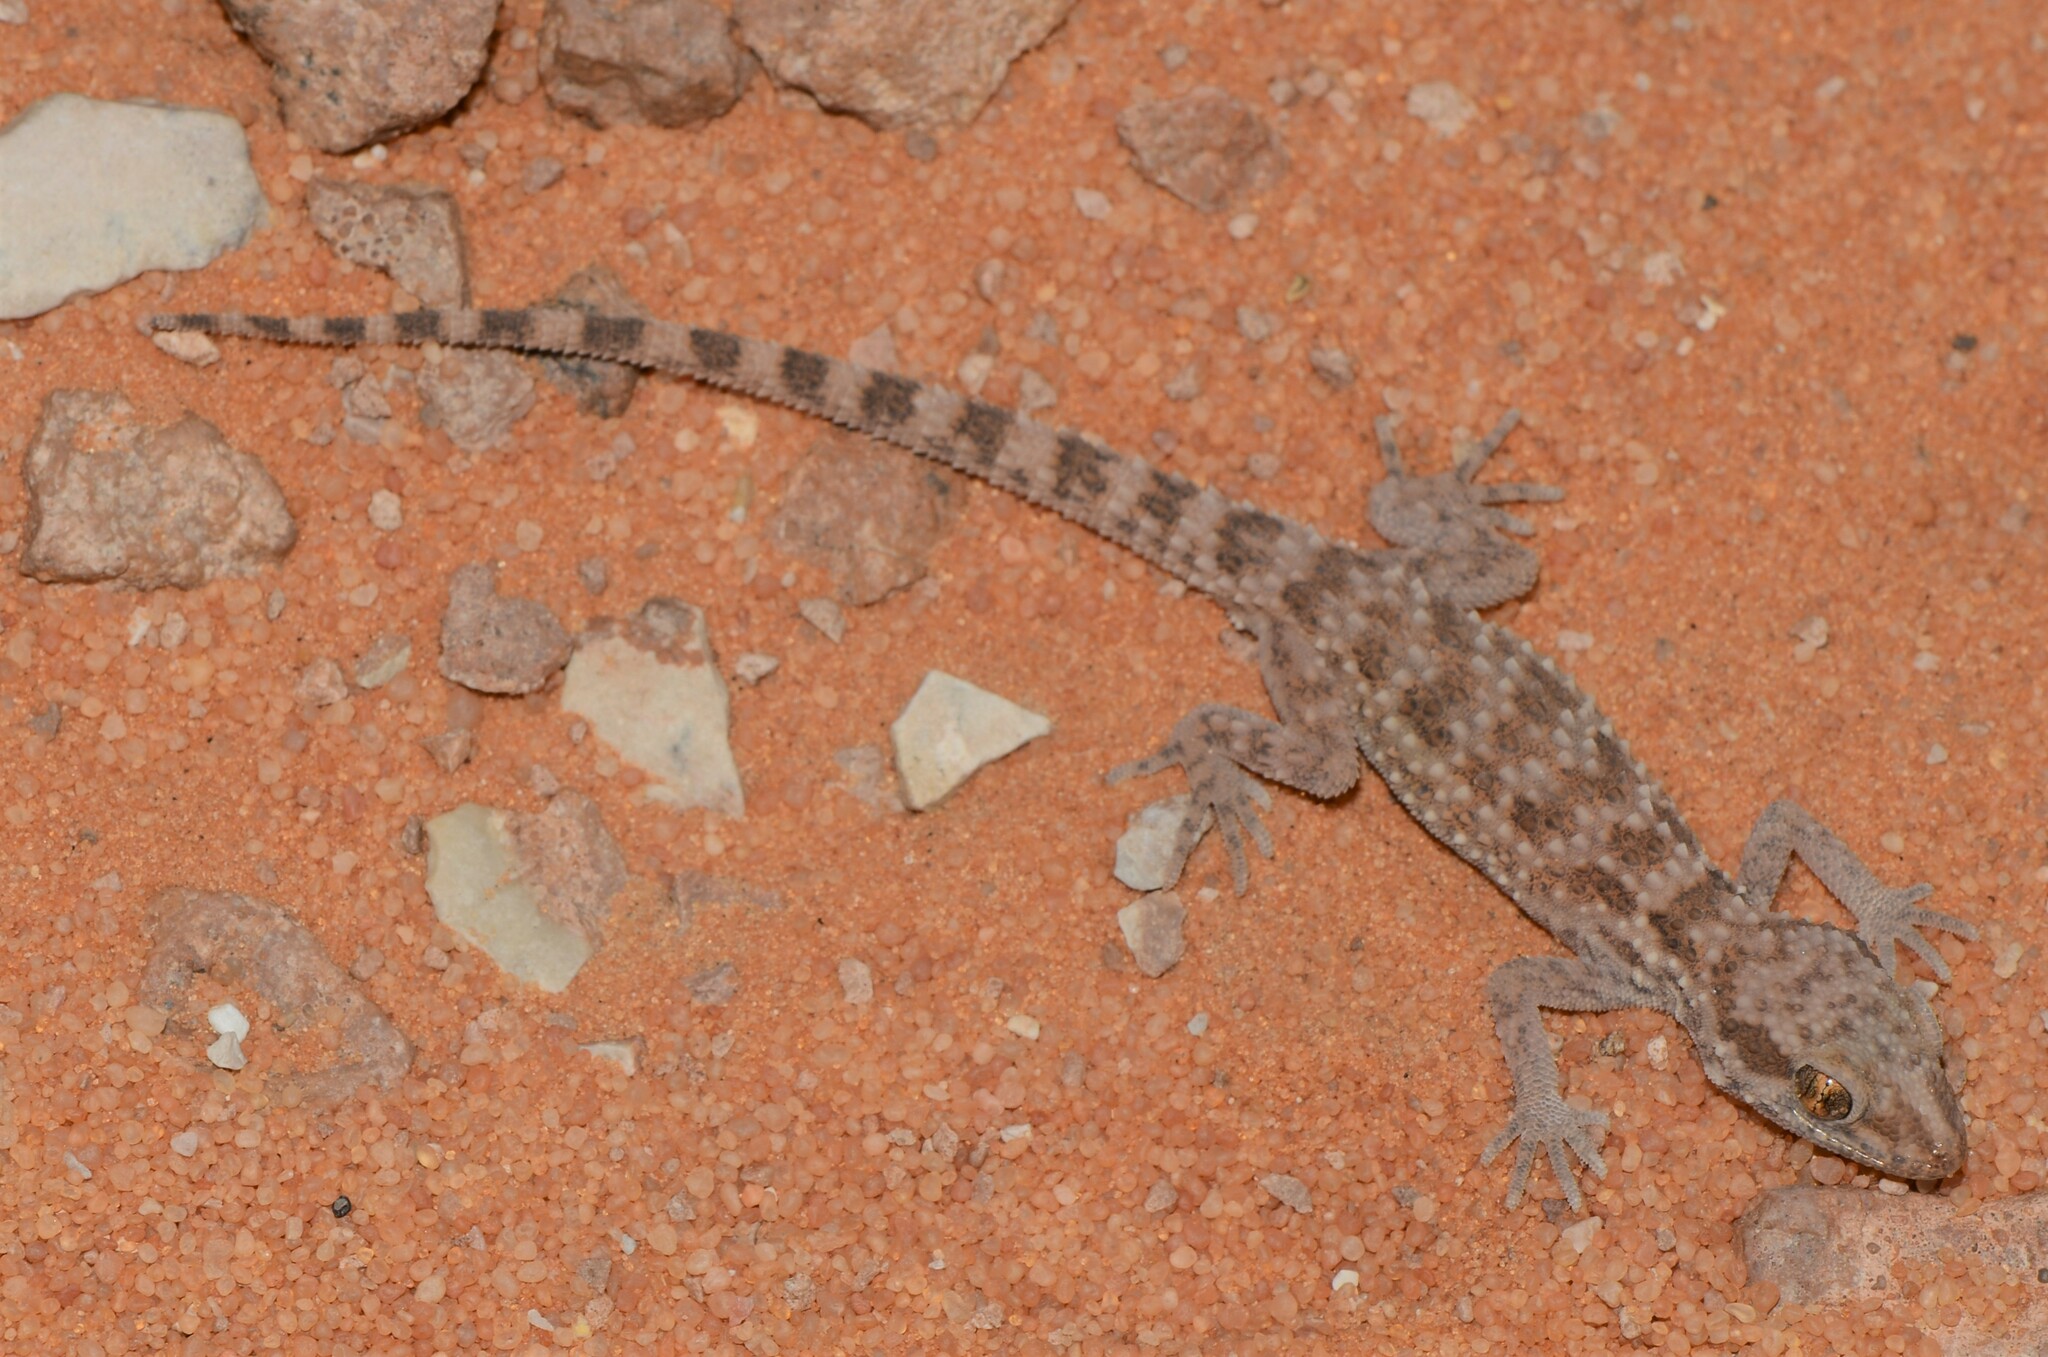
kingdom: Animalia
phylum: Chordata
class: Squamata
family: Gekkonidae
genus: Bunopus
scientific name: Bunopus tuberculatus
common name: Southern tuberculated gecko
